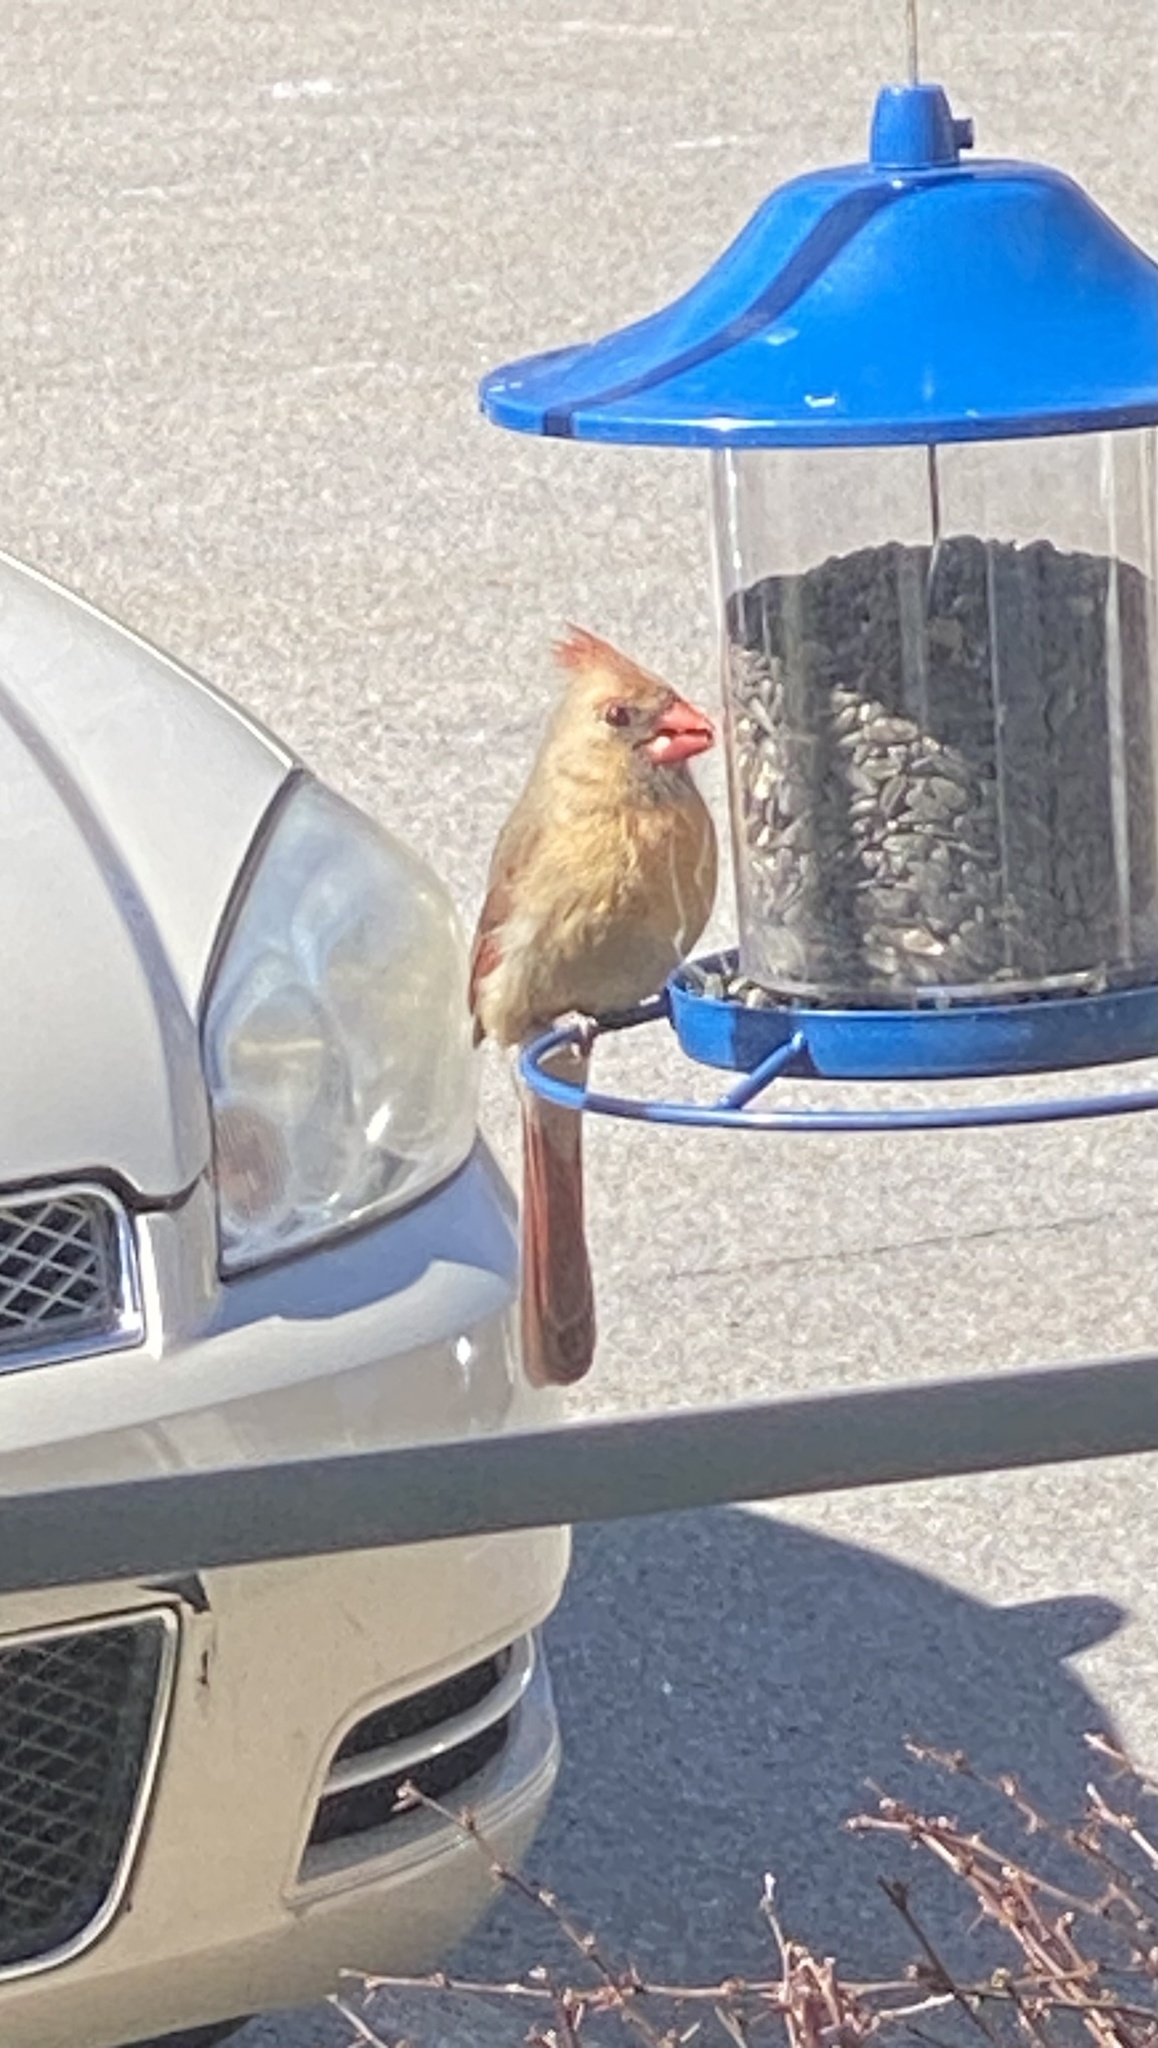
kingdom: Animalia
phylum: Chordata
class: Aves
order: Passeriformes
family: Cardinalidae
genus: Cardinalis
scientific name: Cardinalis cardinalis
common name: Northern cardinal
